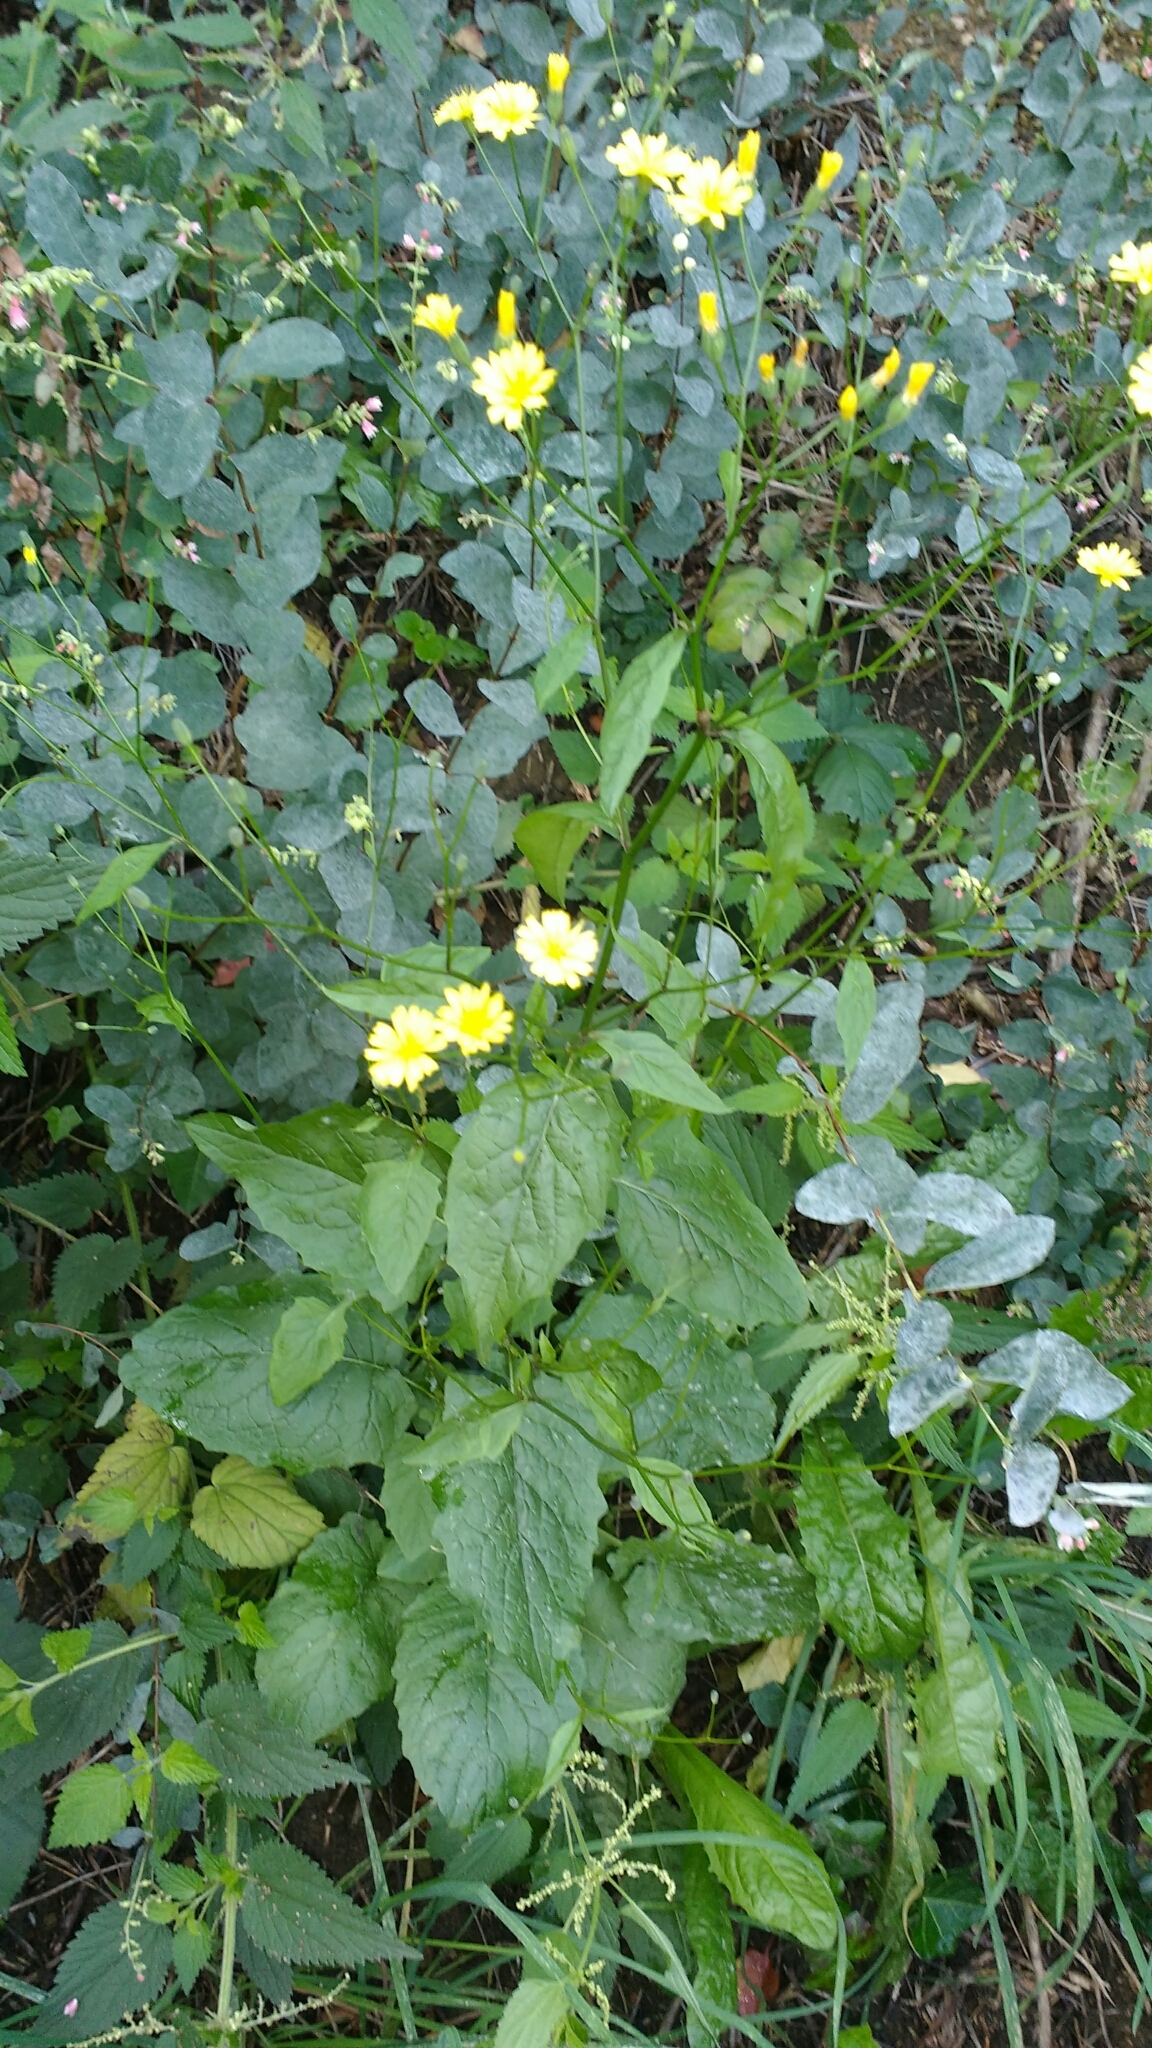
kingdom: Plantae
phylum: Tracheophyta
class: Magnoliopsida
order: Asterales
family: Asteraceae
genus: Lapsana
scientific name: Lapsana communis
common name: Nipplewort
